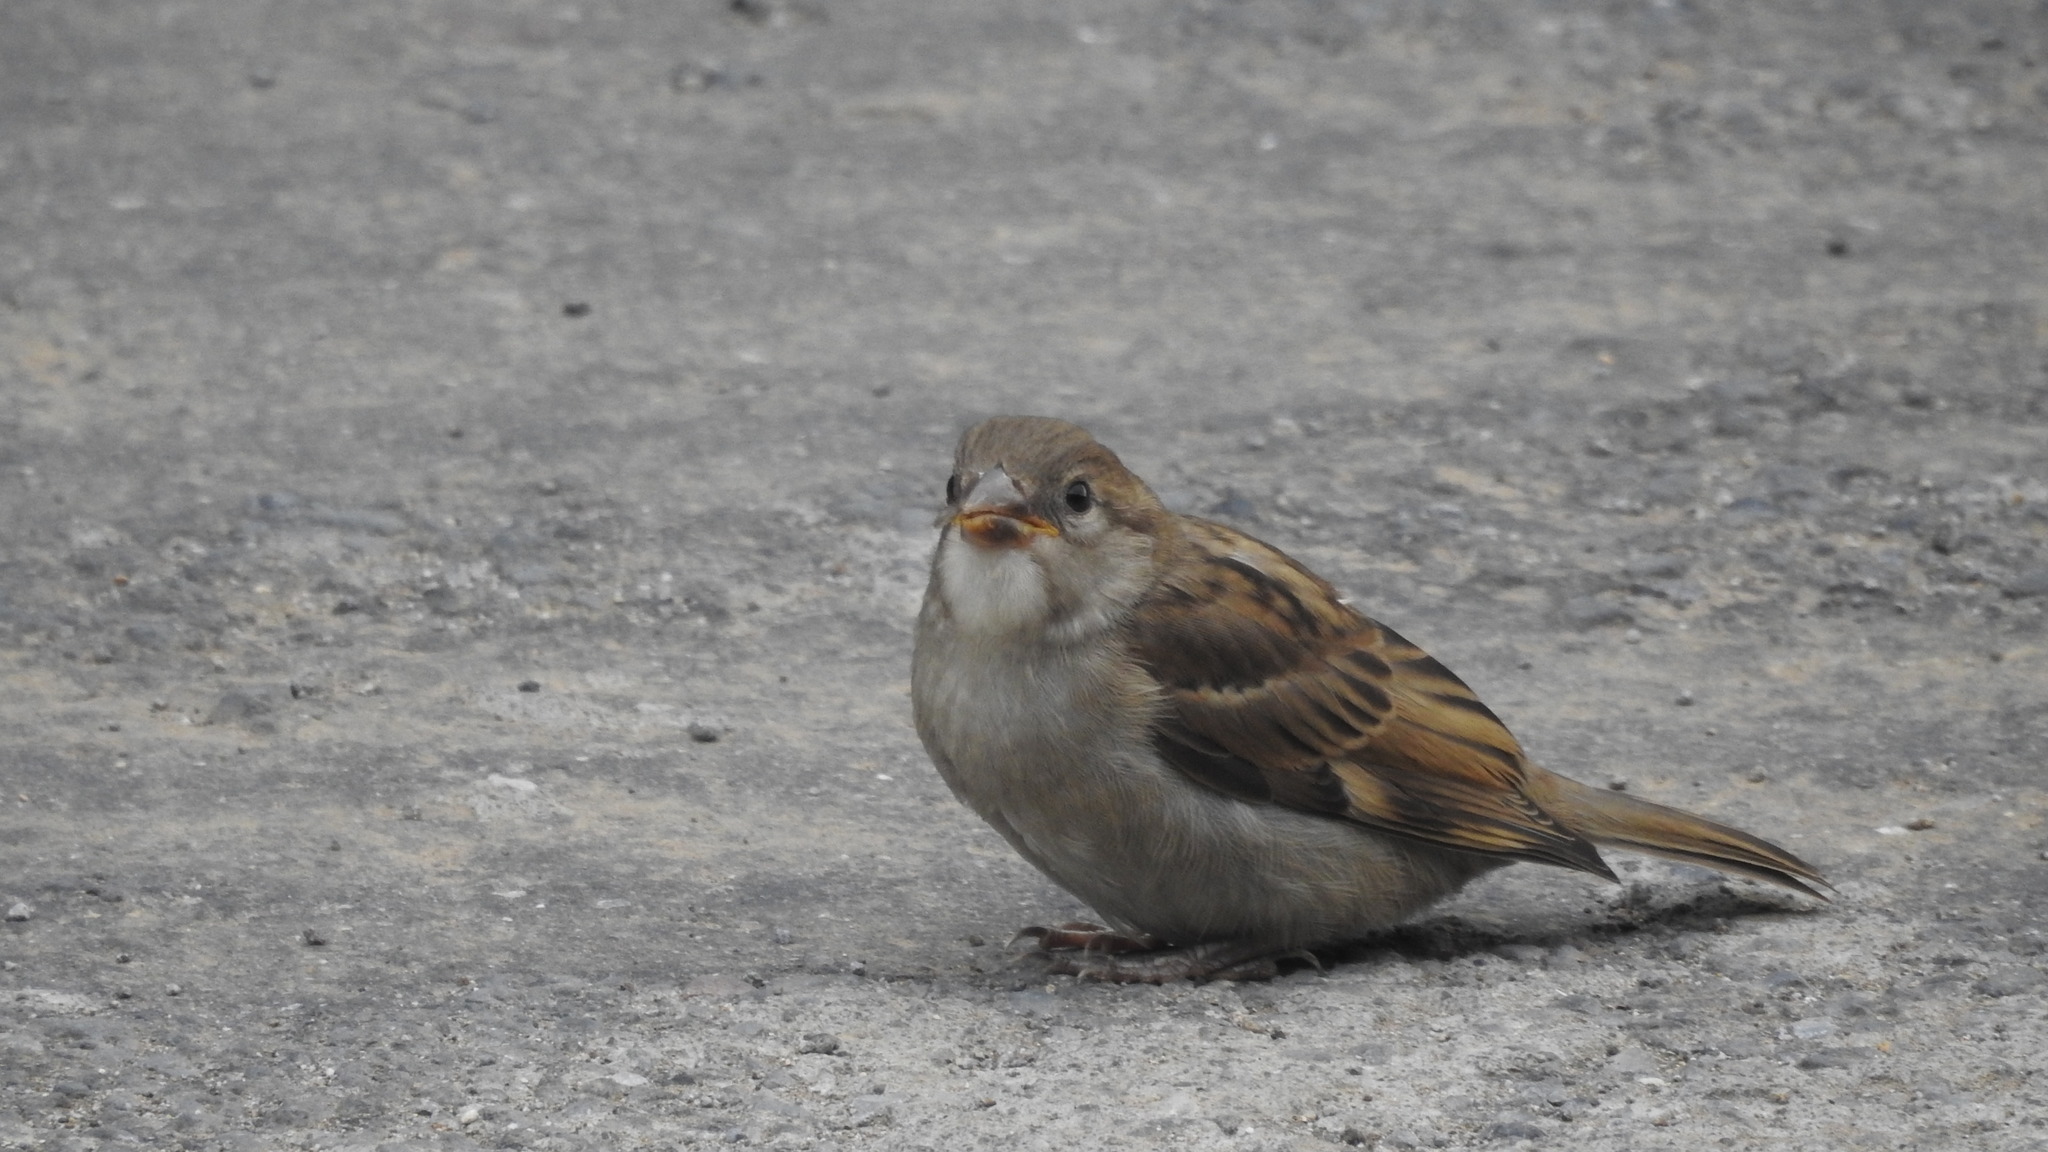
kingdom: Animalia
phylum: Chordata
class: Aves
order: Passeriformes
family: Passeridae
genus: Passer
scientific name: Passer domesticus
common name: House sparrow
